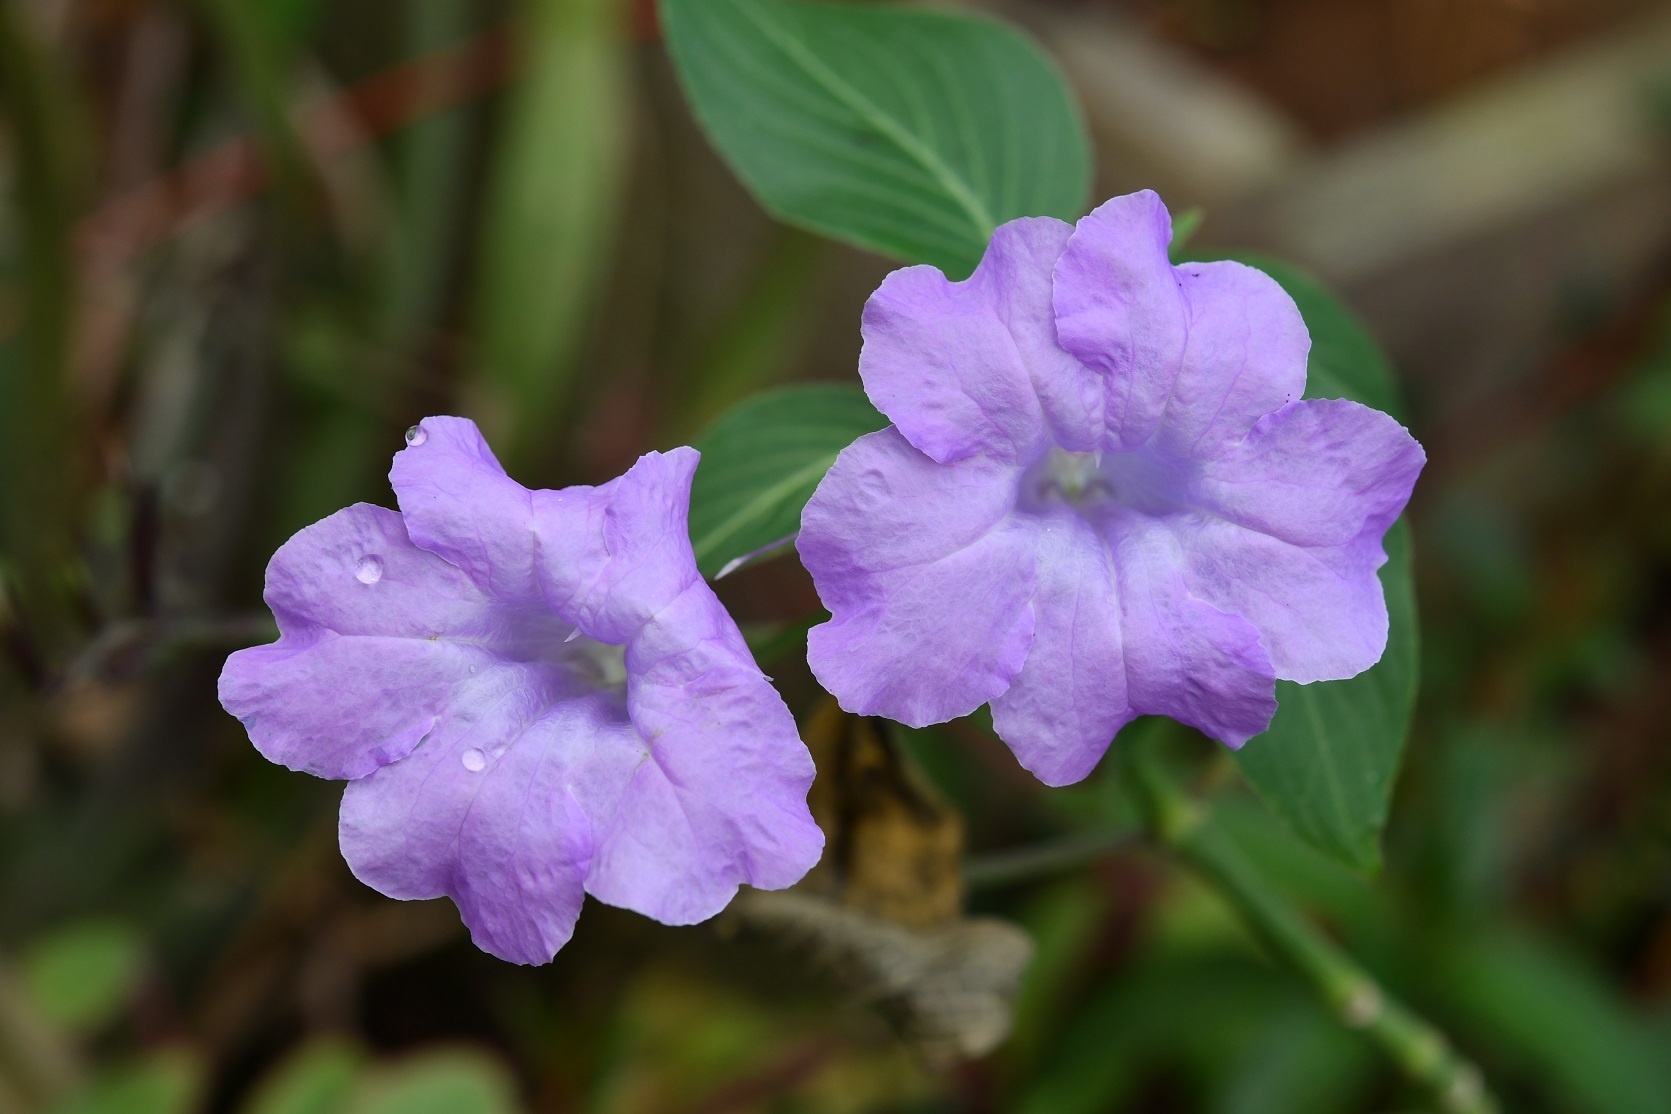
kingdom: Plantae
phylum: Tracheophyta
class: Magnoliopsida
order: Lamiales
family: Acanthaceae
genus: Ruellia
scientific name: Ruellia breedlovei
